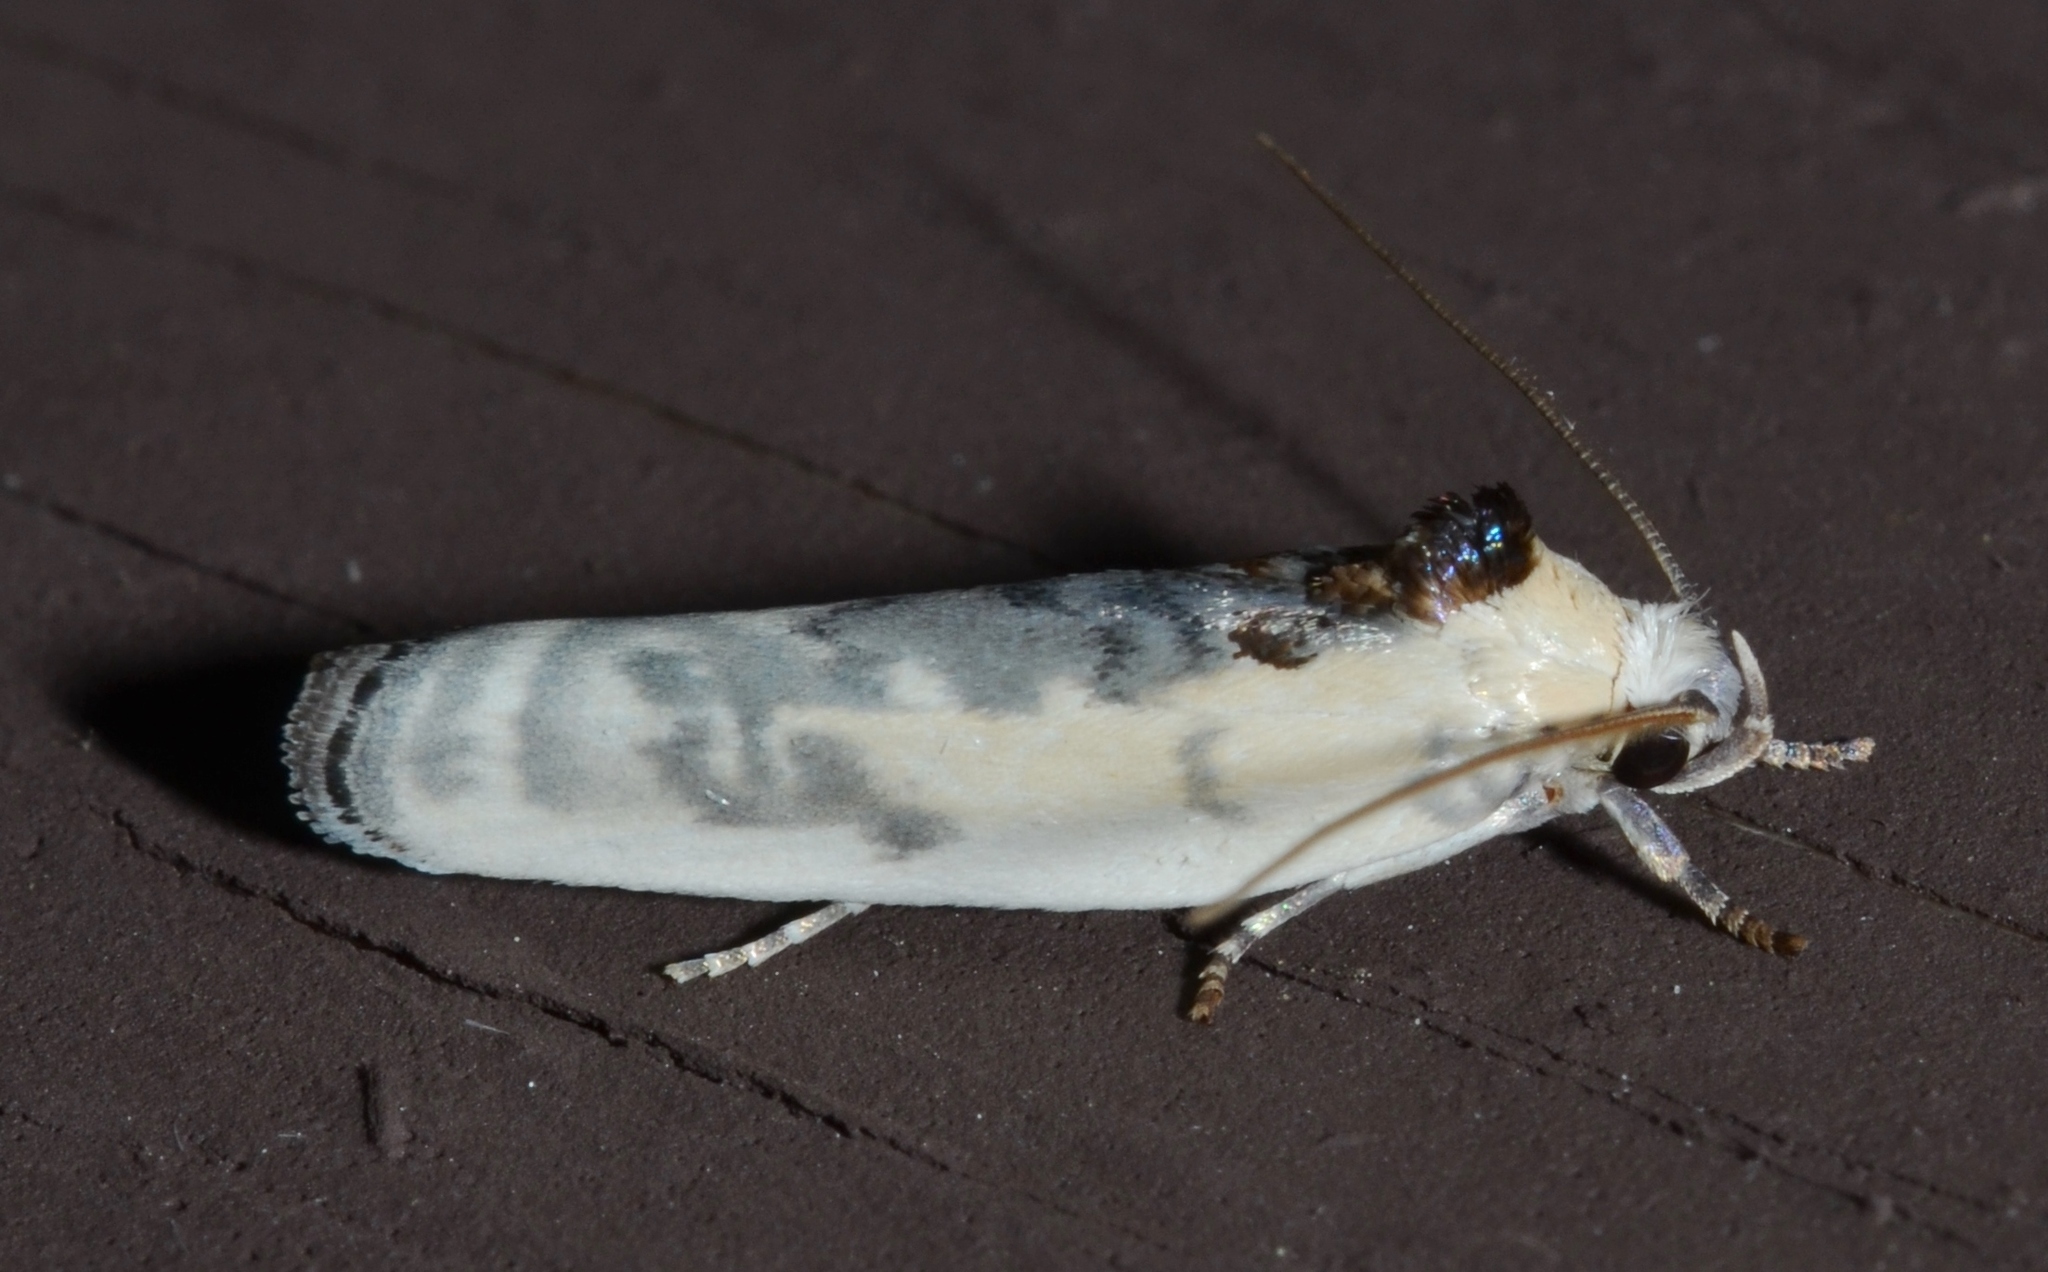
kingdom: Animalia
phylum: Arthropoda
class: Insecta
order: Lepidoptera
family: Depressariidae
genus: Antaeotricha
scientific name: Antaeotricha schlaegeri
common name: Schlaeger's fruitworm moth
